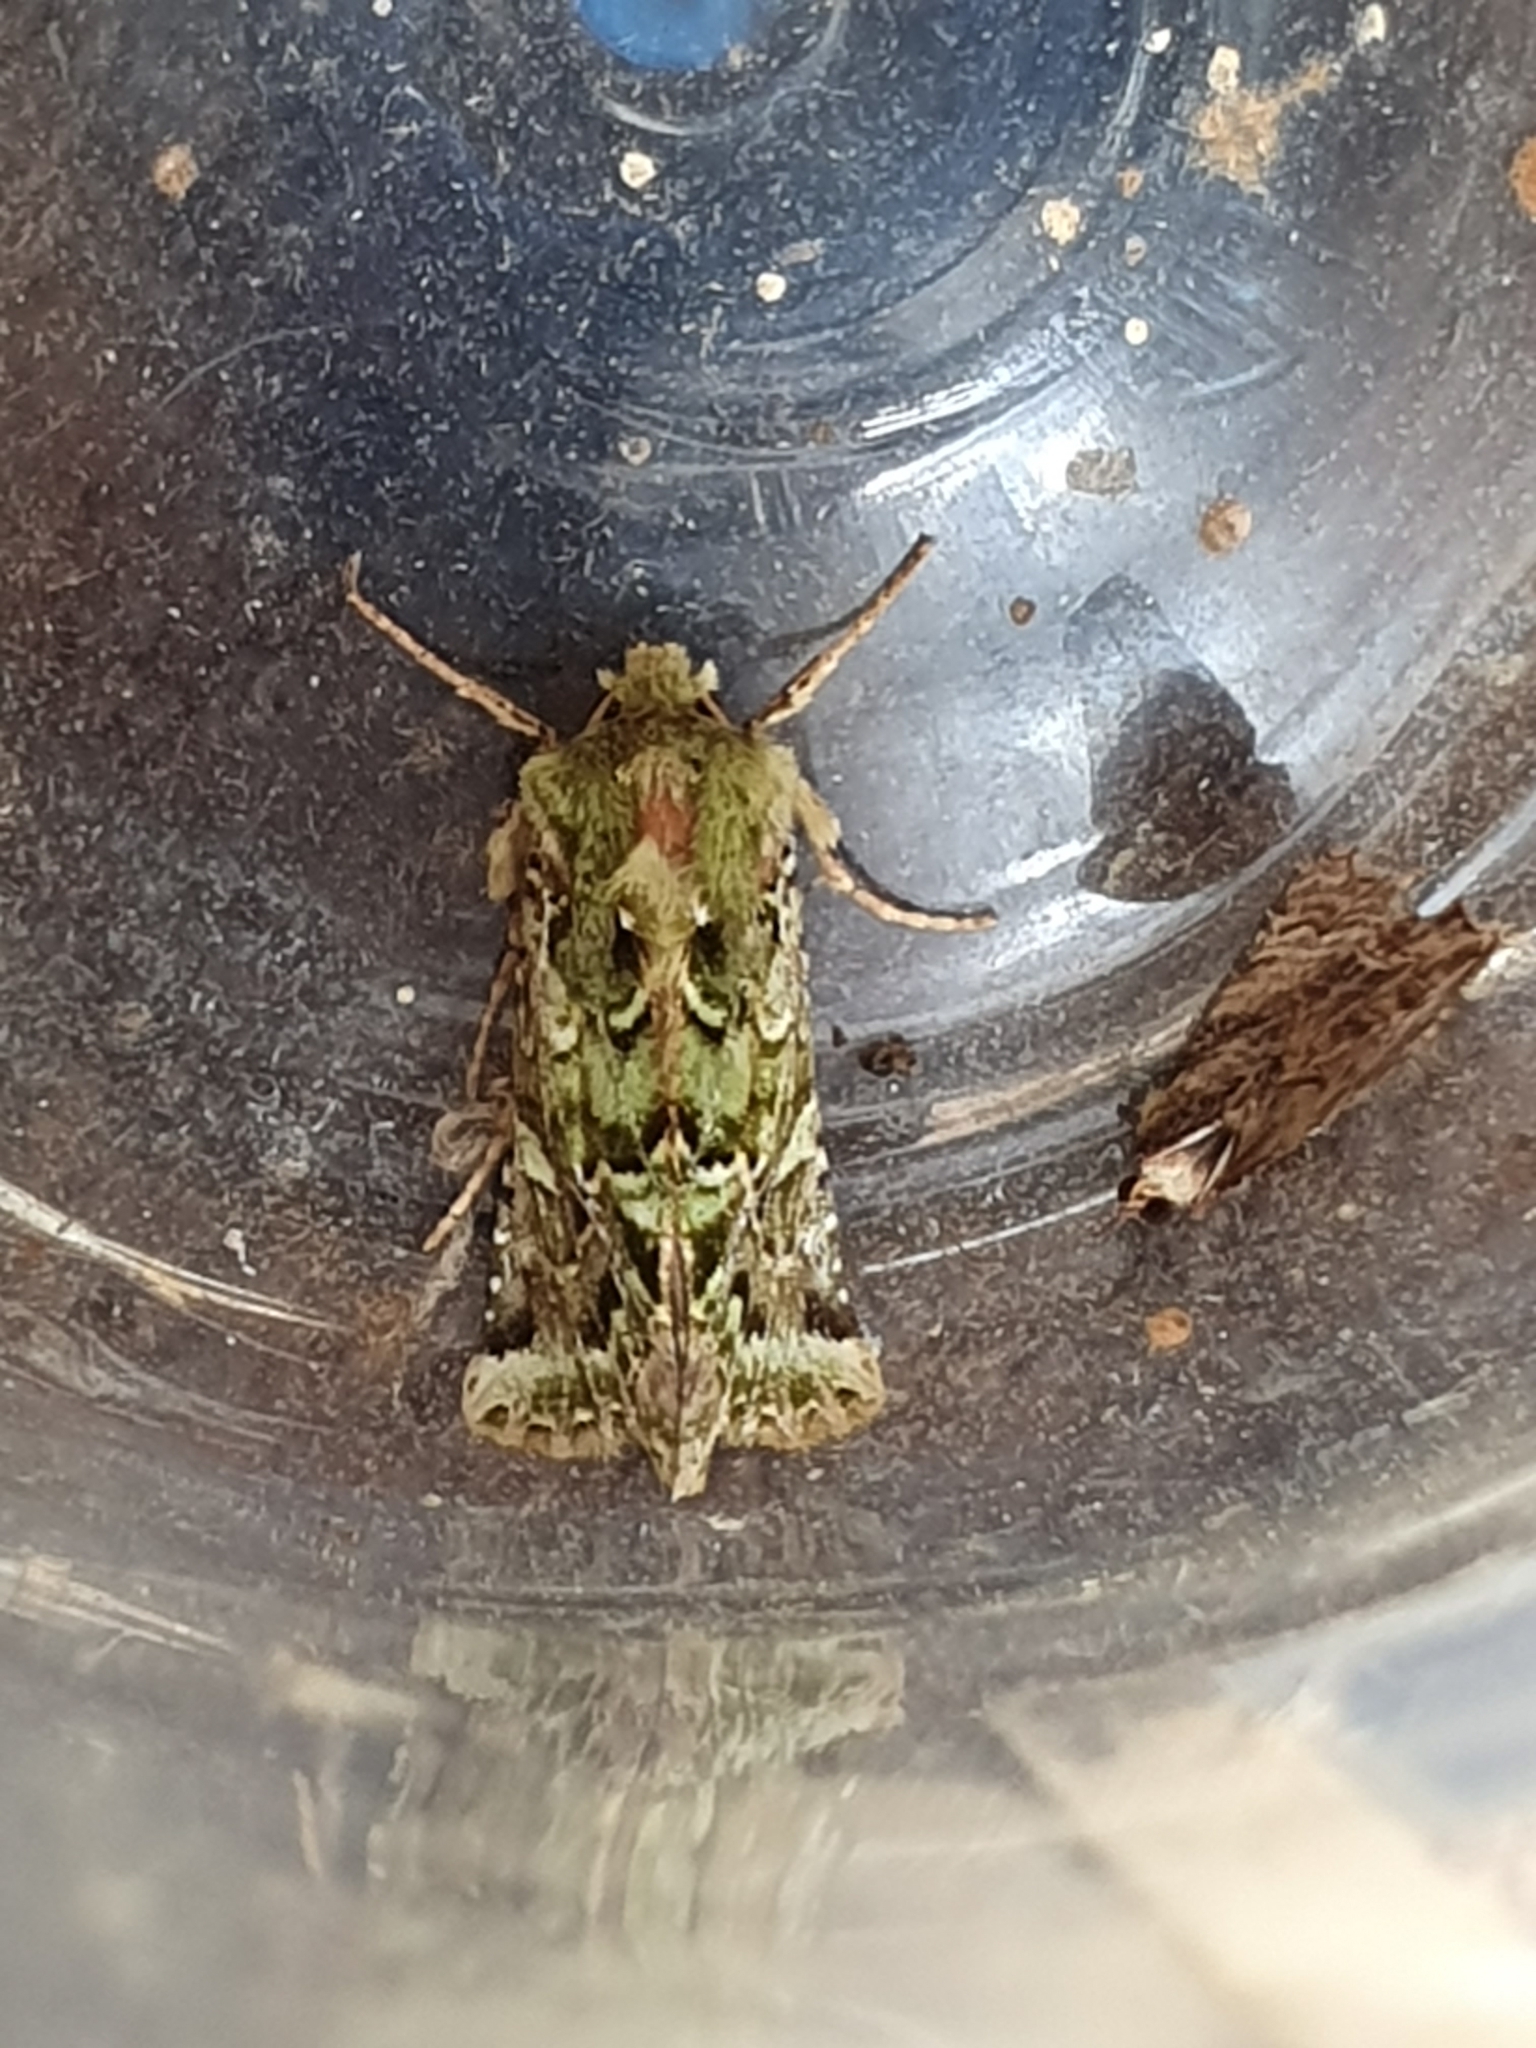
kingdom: Animalia
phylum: Arthropoda
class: Insecta
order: Lepidoptera
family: Noctuidae
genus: Feredayia
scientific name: Feredayia grammosa
